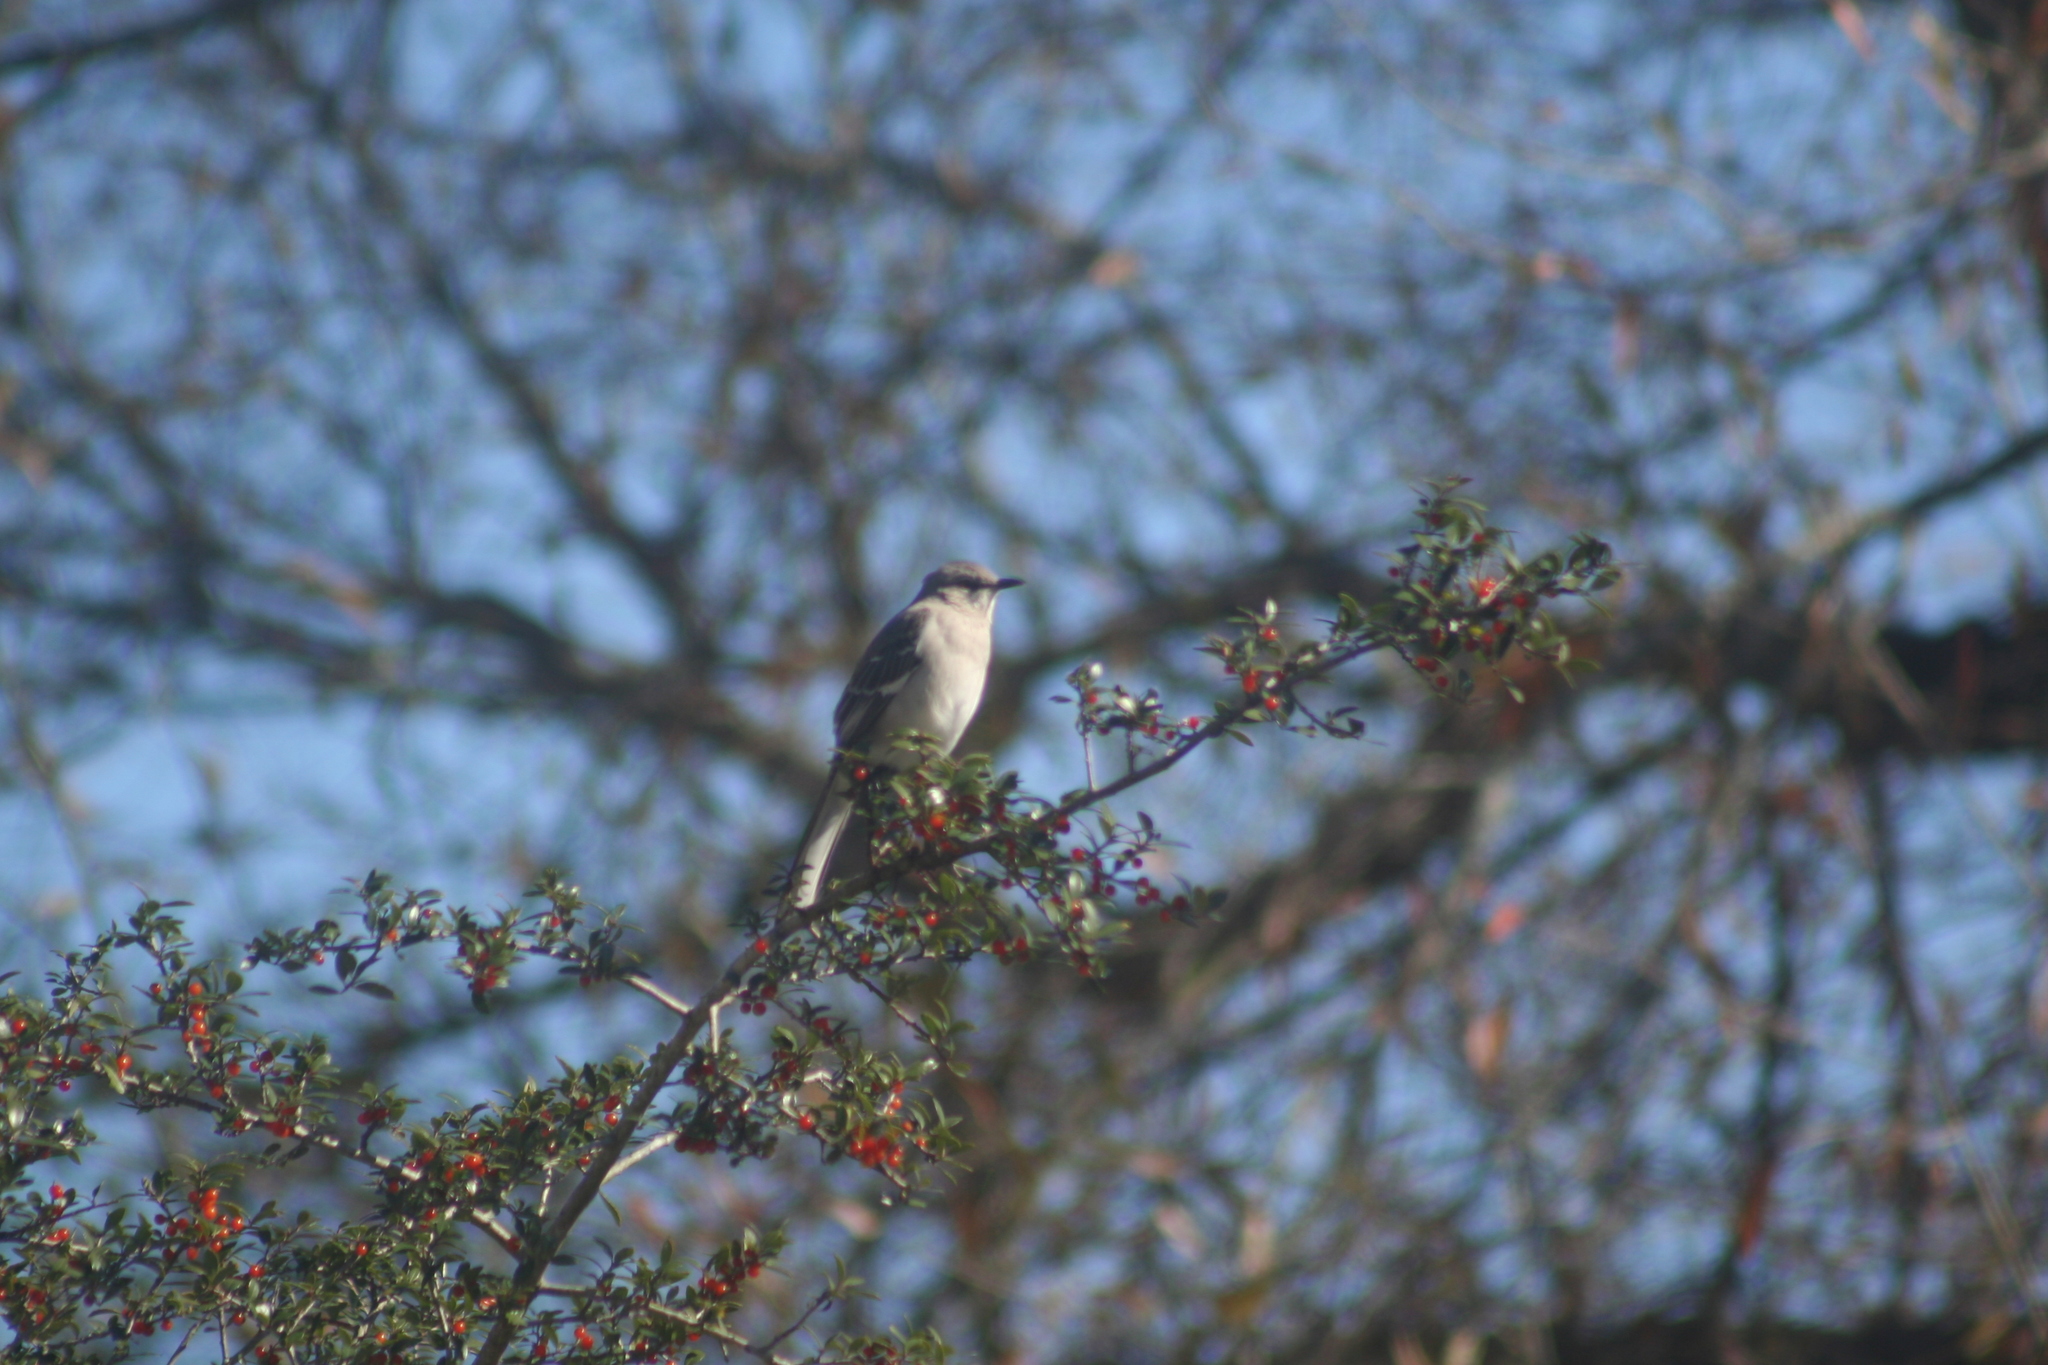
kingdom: Animalia
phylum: Chordata
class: Aves
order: Passeriformes
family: Mimidae
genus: Mimus
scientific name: Mimus polyglottos
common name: Northern mockingbird
